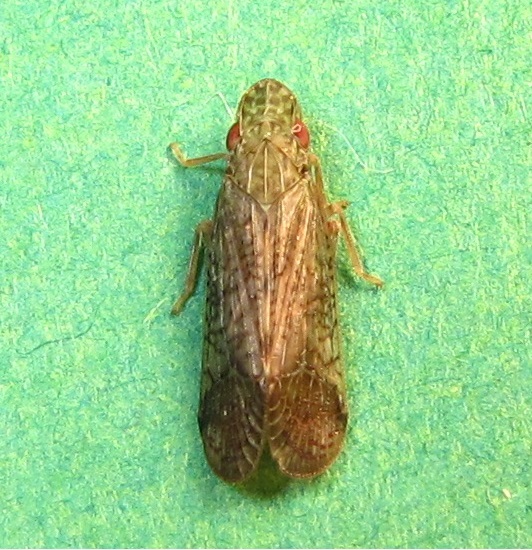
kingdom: Animalia
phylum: Arthropoda
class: Insecta
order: Hemiptera
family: Tropiduchidae
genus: Pelitropis
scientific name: Pelitropis rotulata
